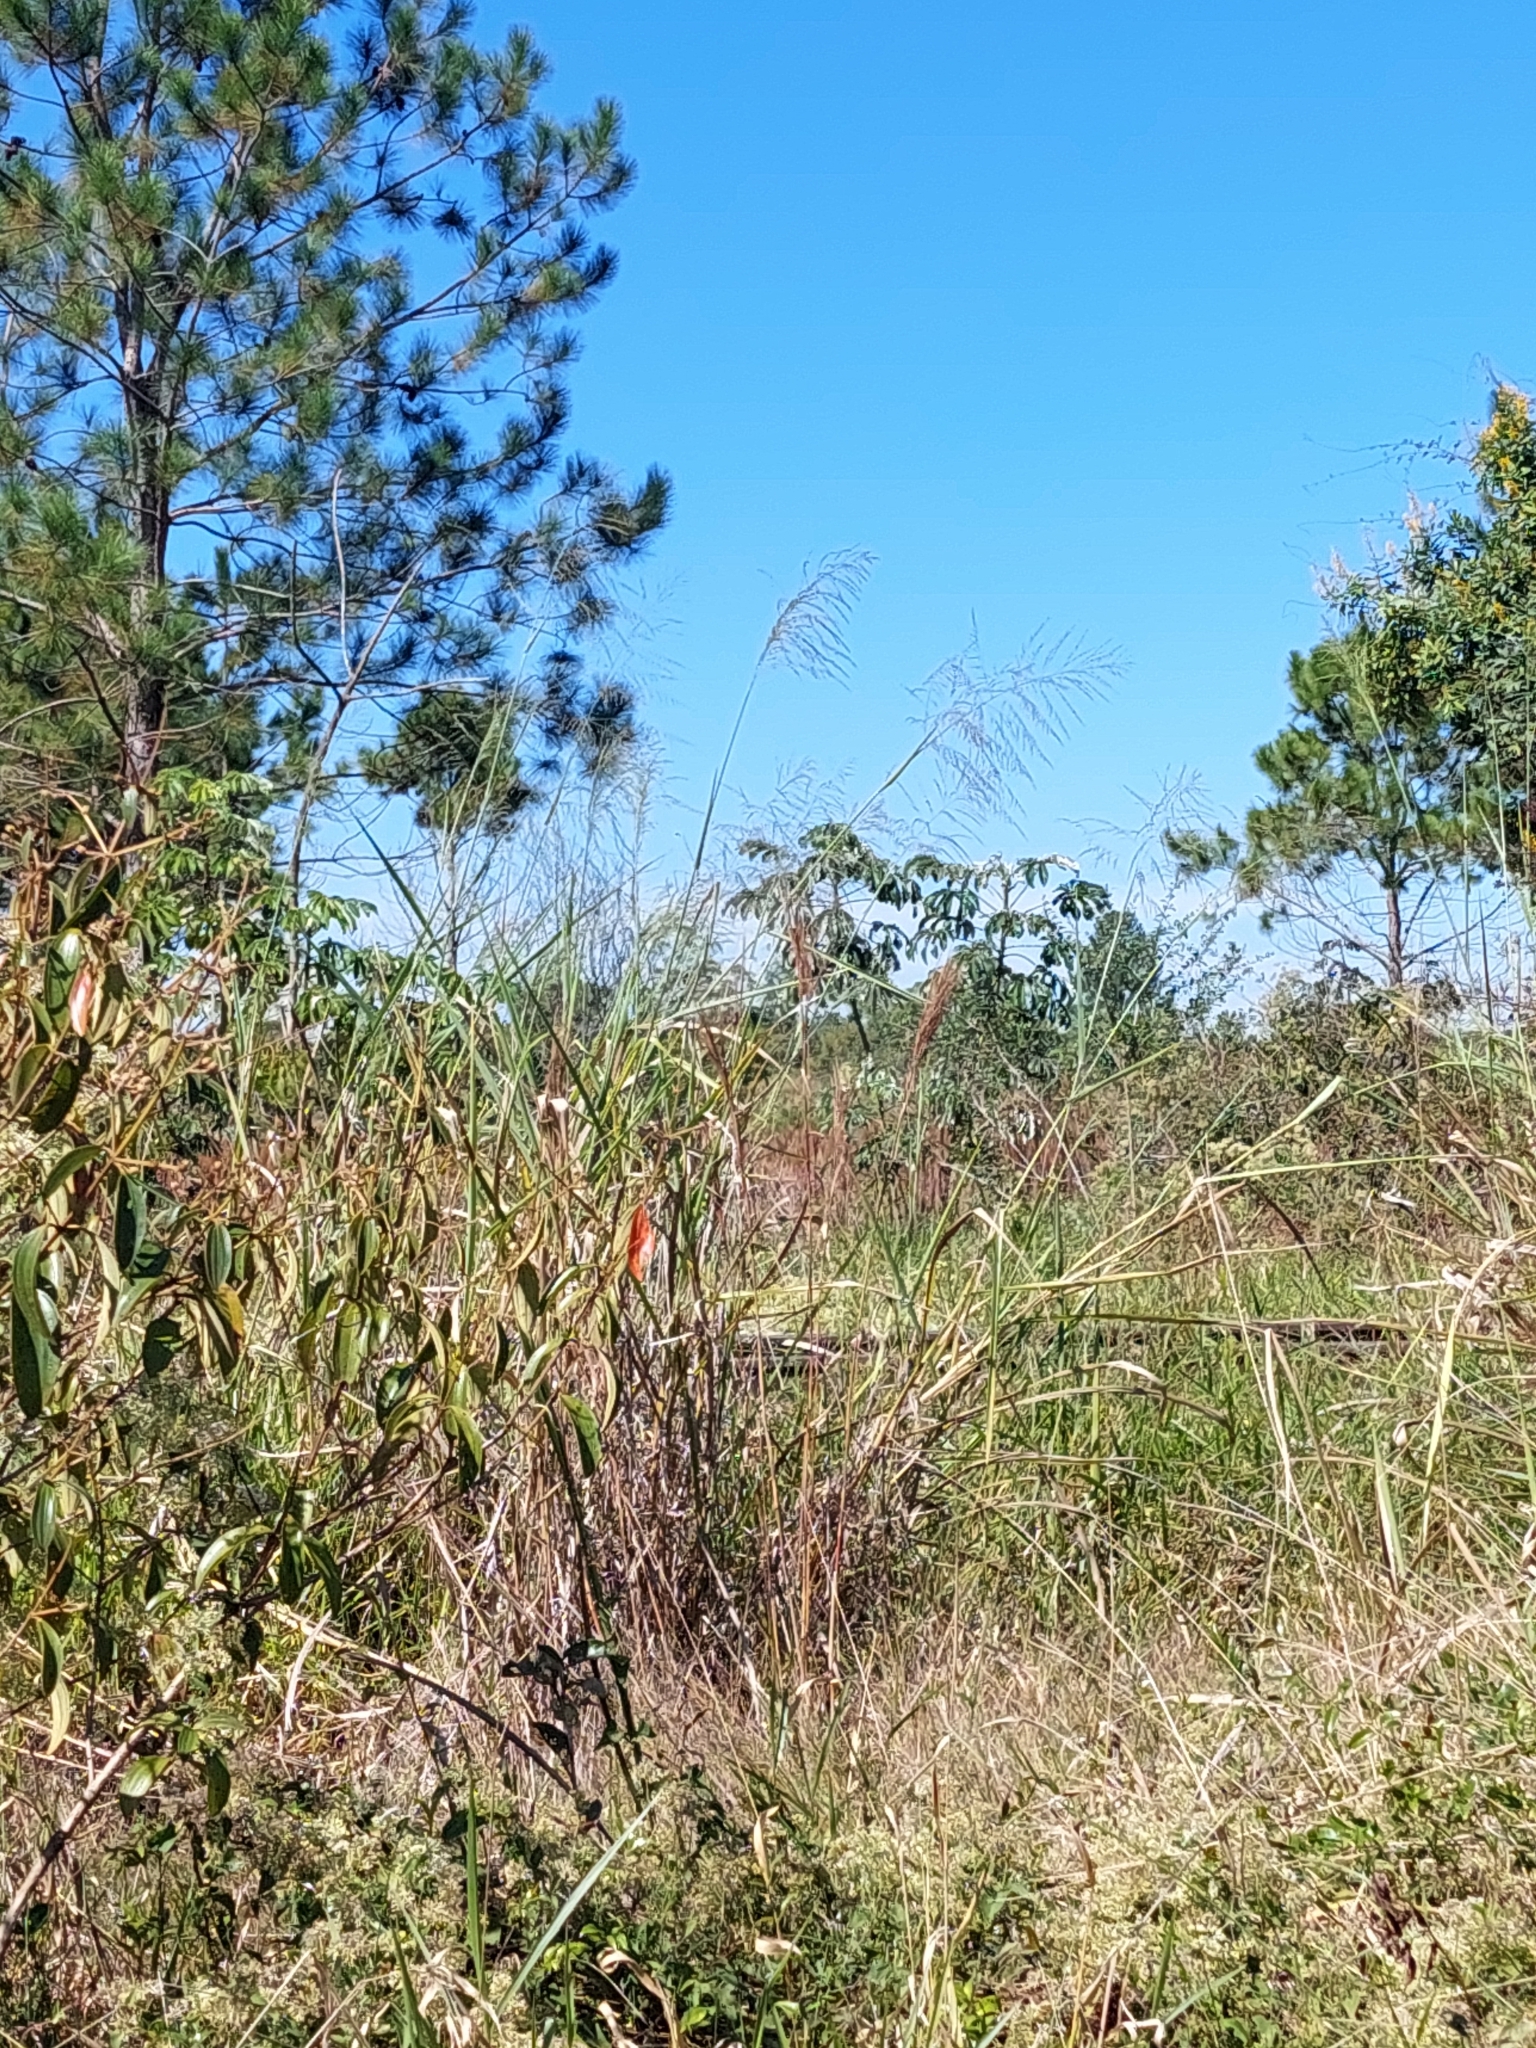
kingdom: Plantae
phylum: Tracheophyta
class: Liliopsida
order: Poales
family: Poaceae
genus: Megathyrsus
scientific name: Megathyrsus maximus
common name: Guineagrass
